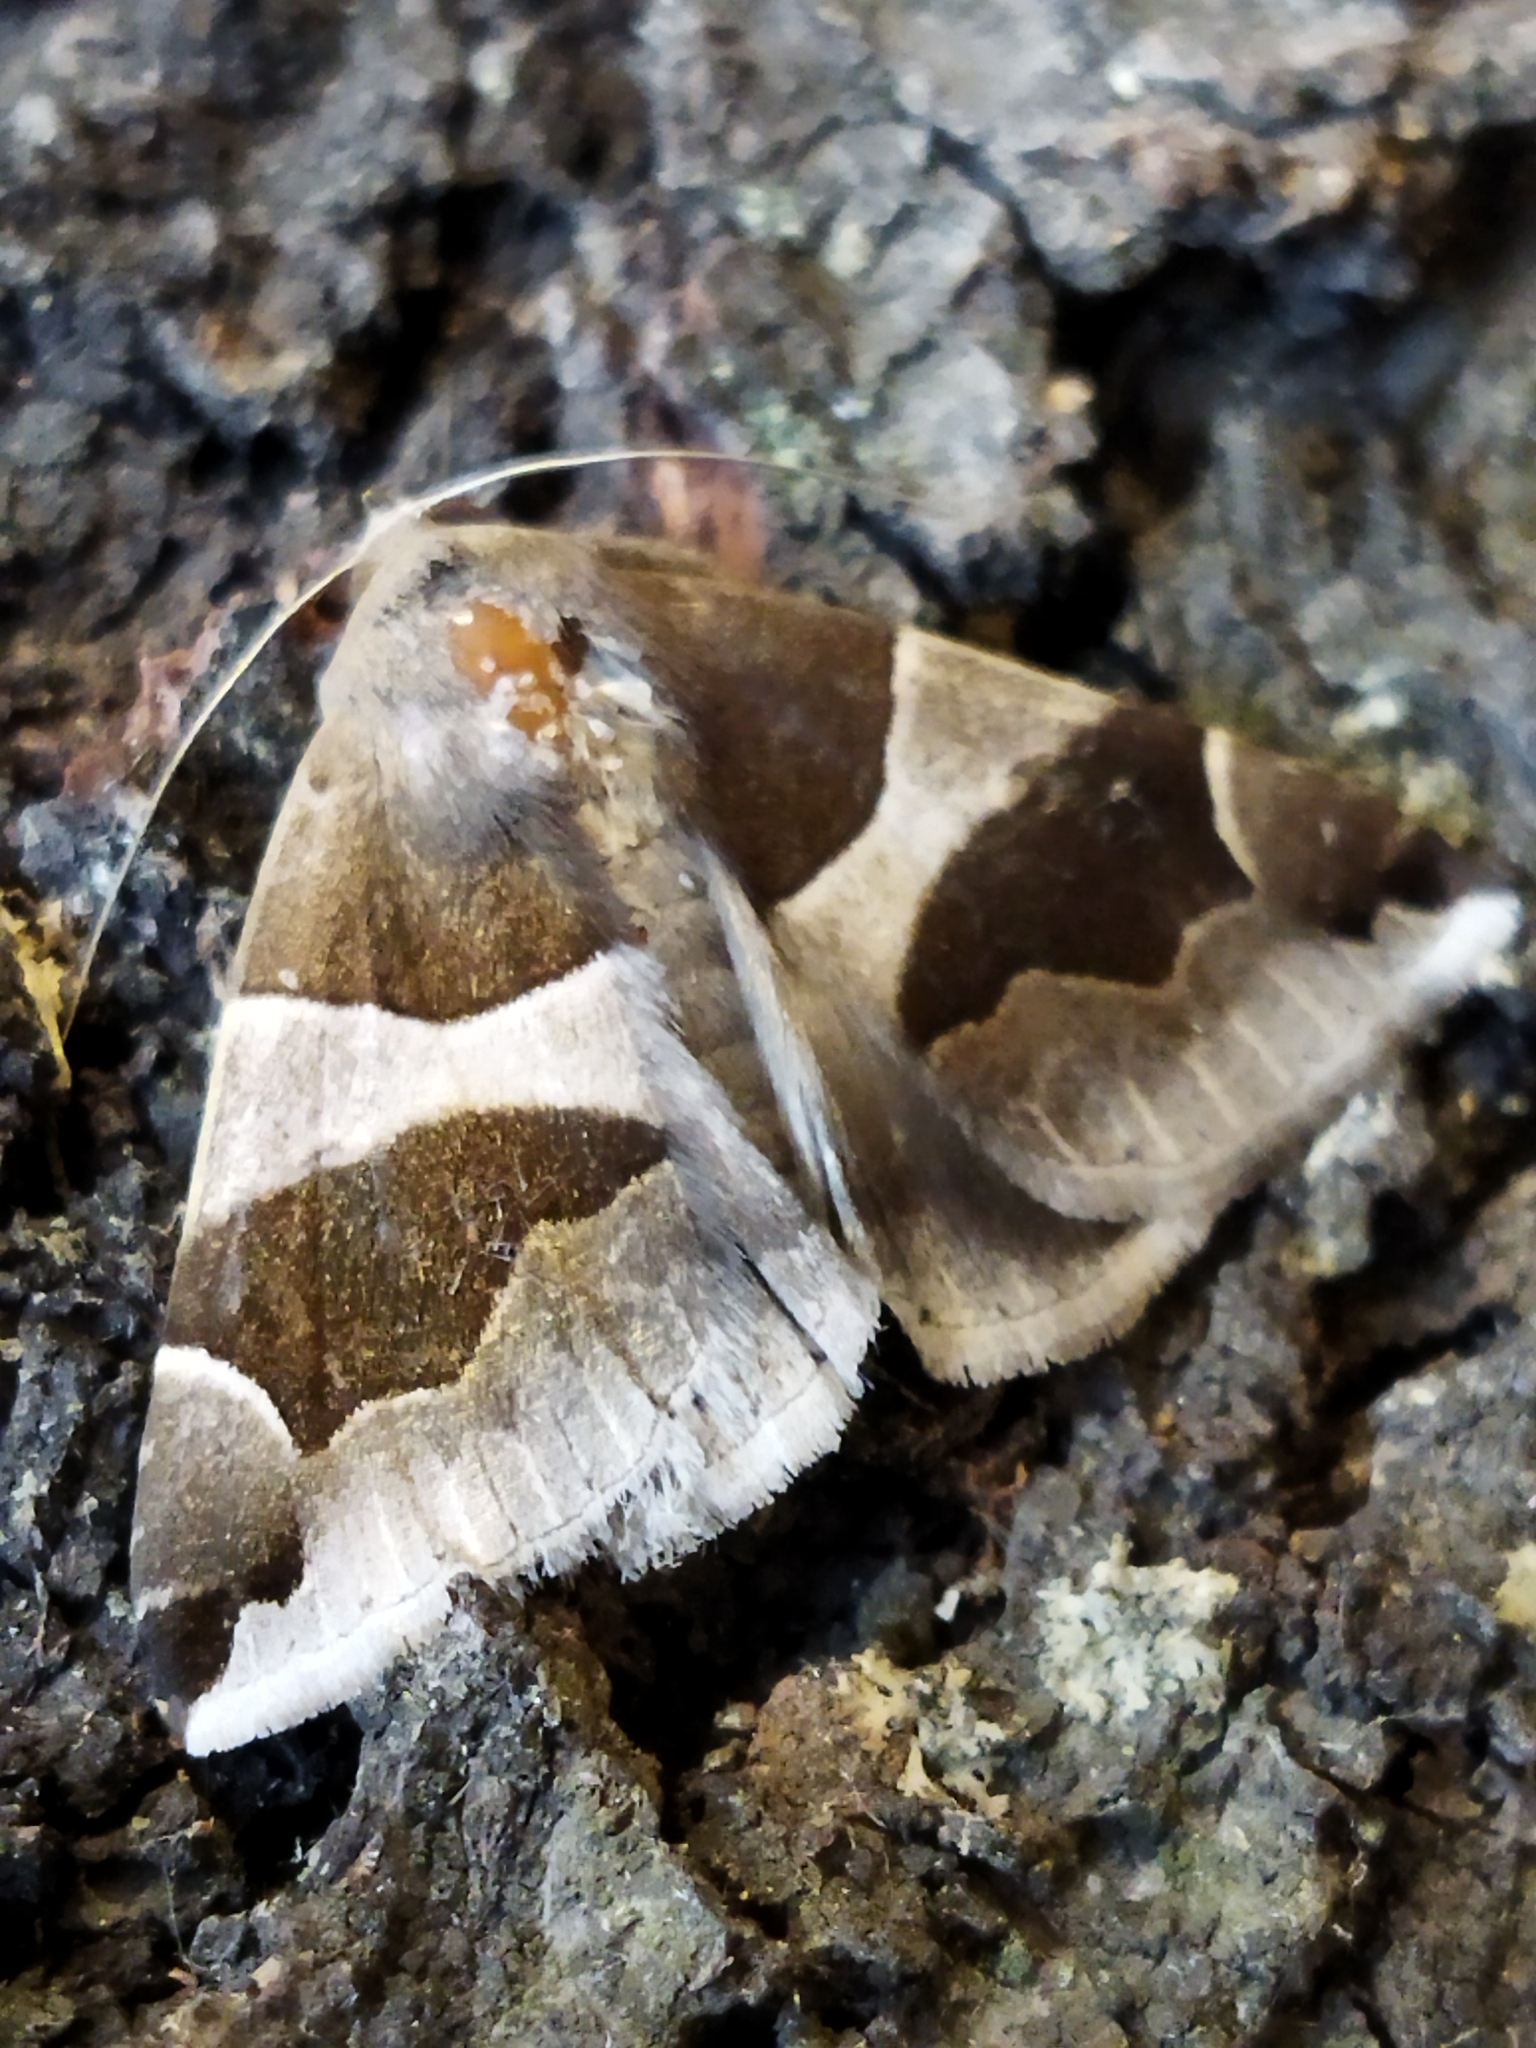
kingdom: Animalia
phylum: Arthropoda
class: Insecta
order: Lepidoptera
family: Erebidae
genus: Dysgonia
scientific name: Dysgonia algira
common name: Passenger
